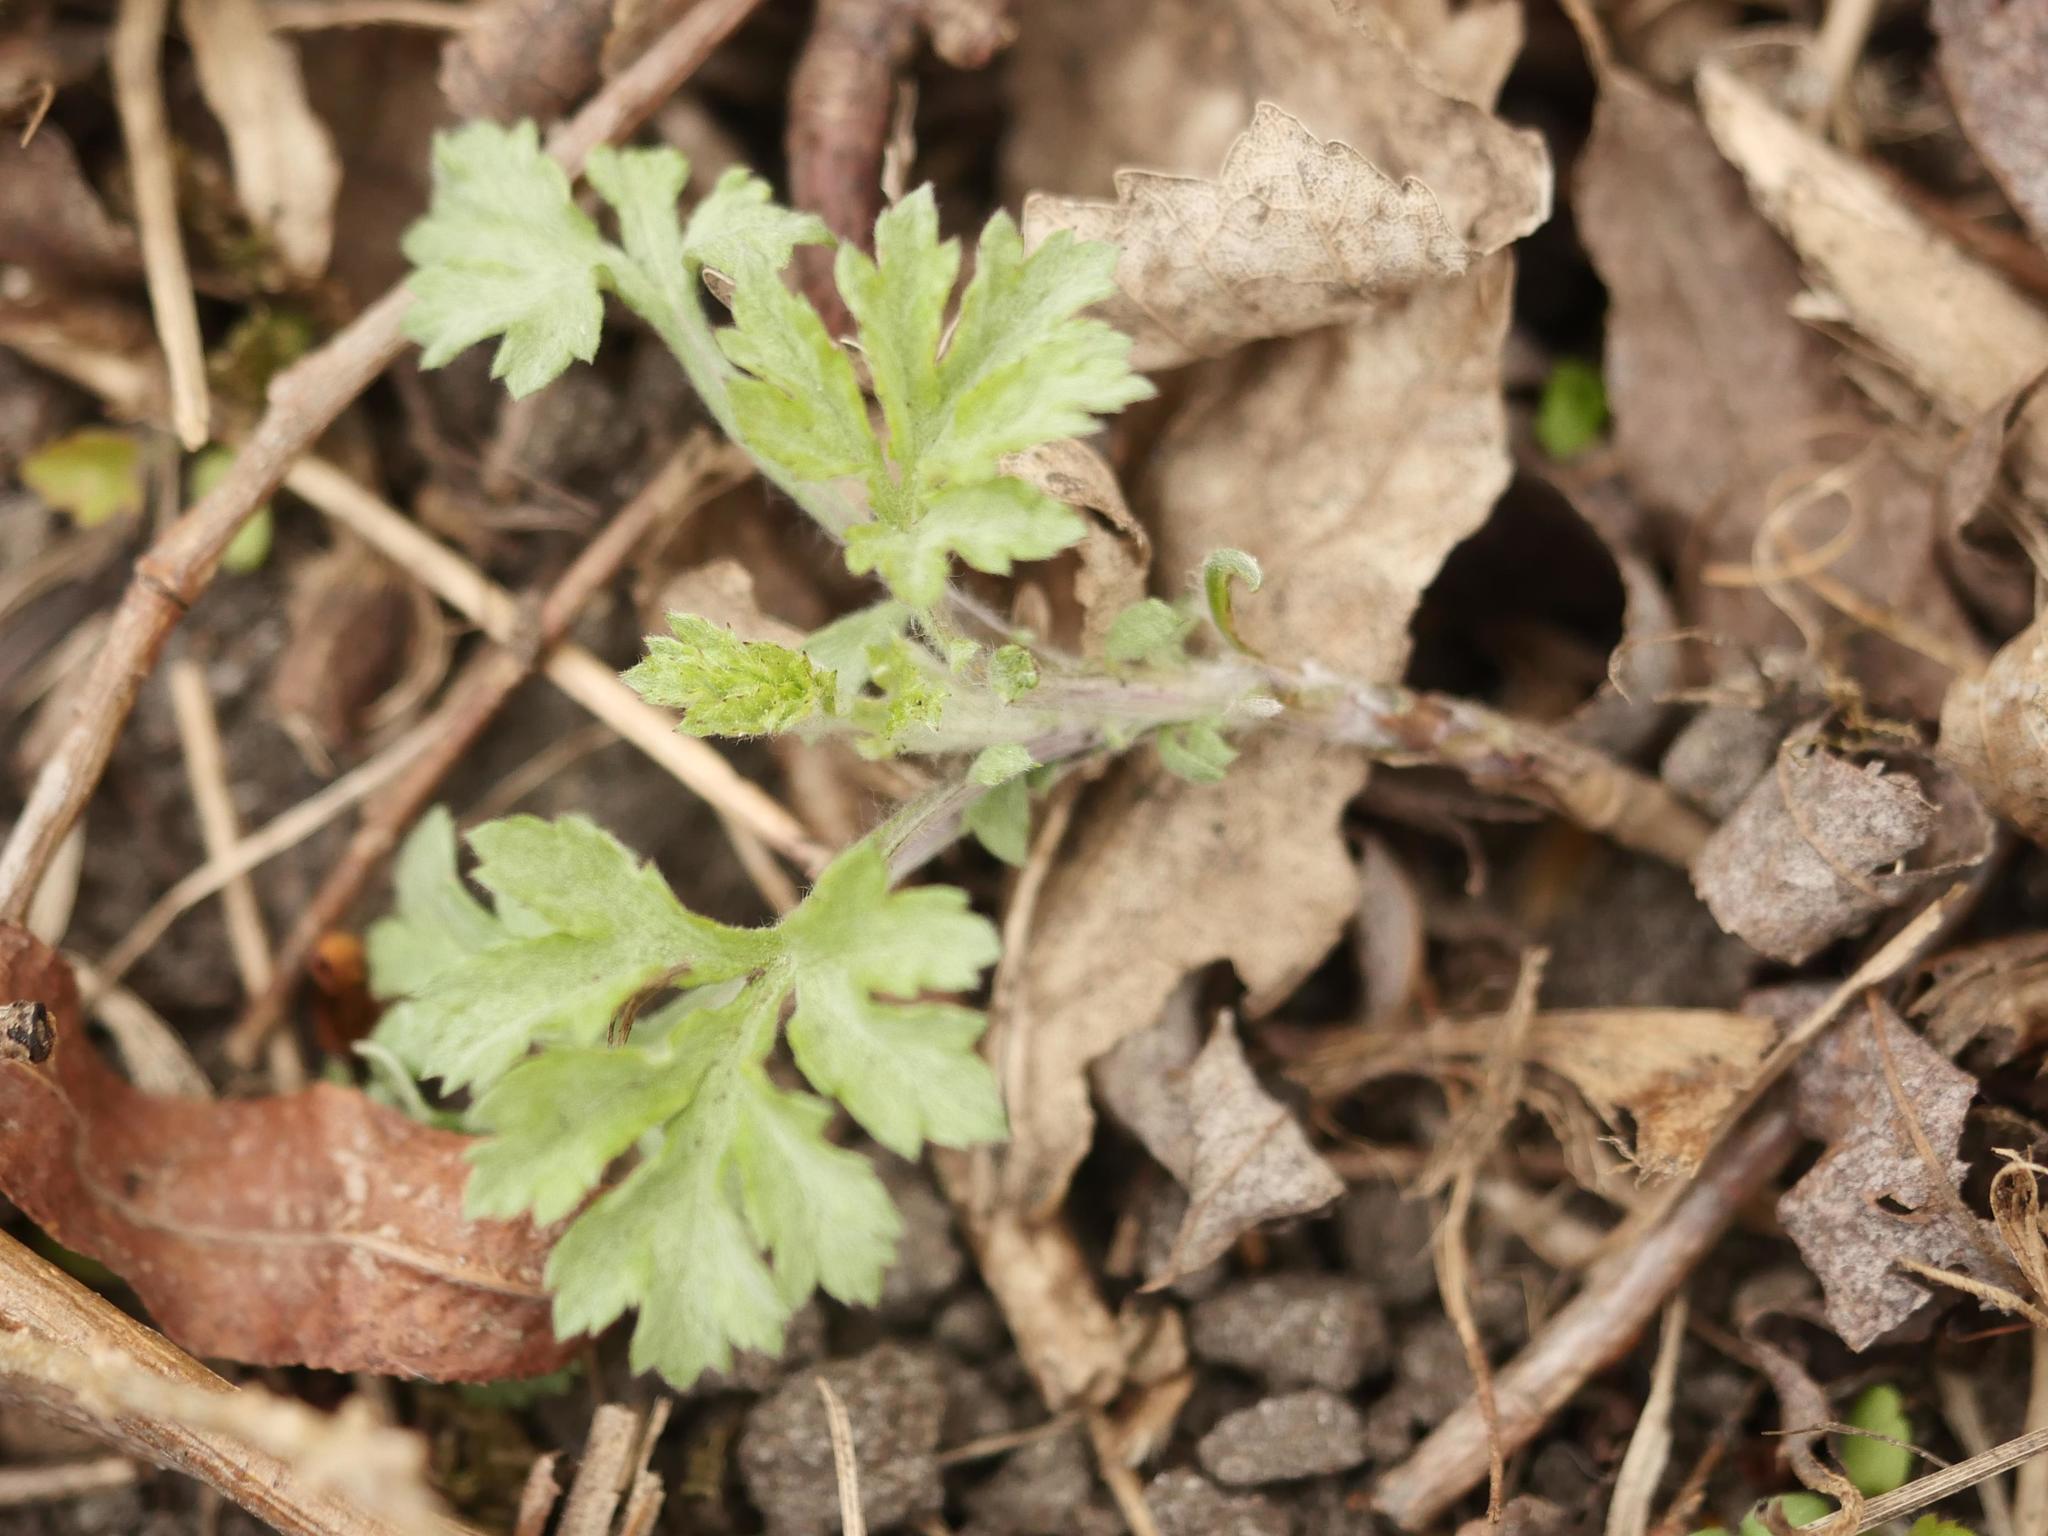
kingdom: Plantae
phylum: Tracheophyta
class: Magnoliopsida
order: Asterales
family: Asteraceae
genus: Artemisia
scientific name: Artemisia vulgaris
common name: Mugwort
